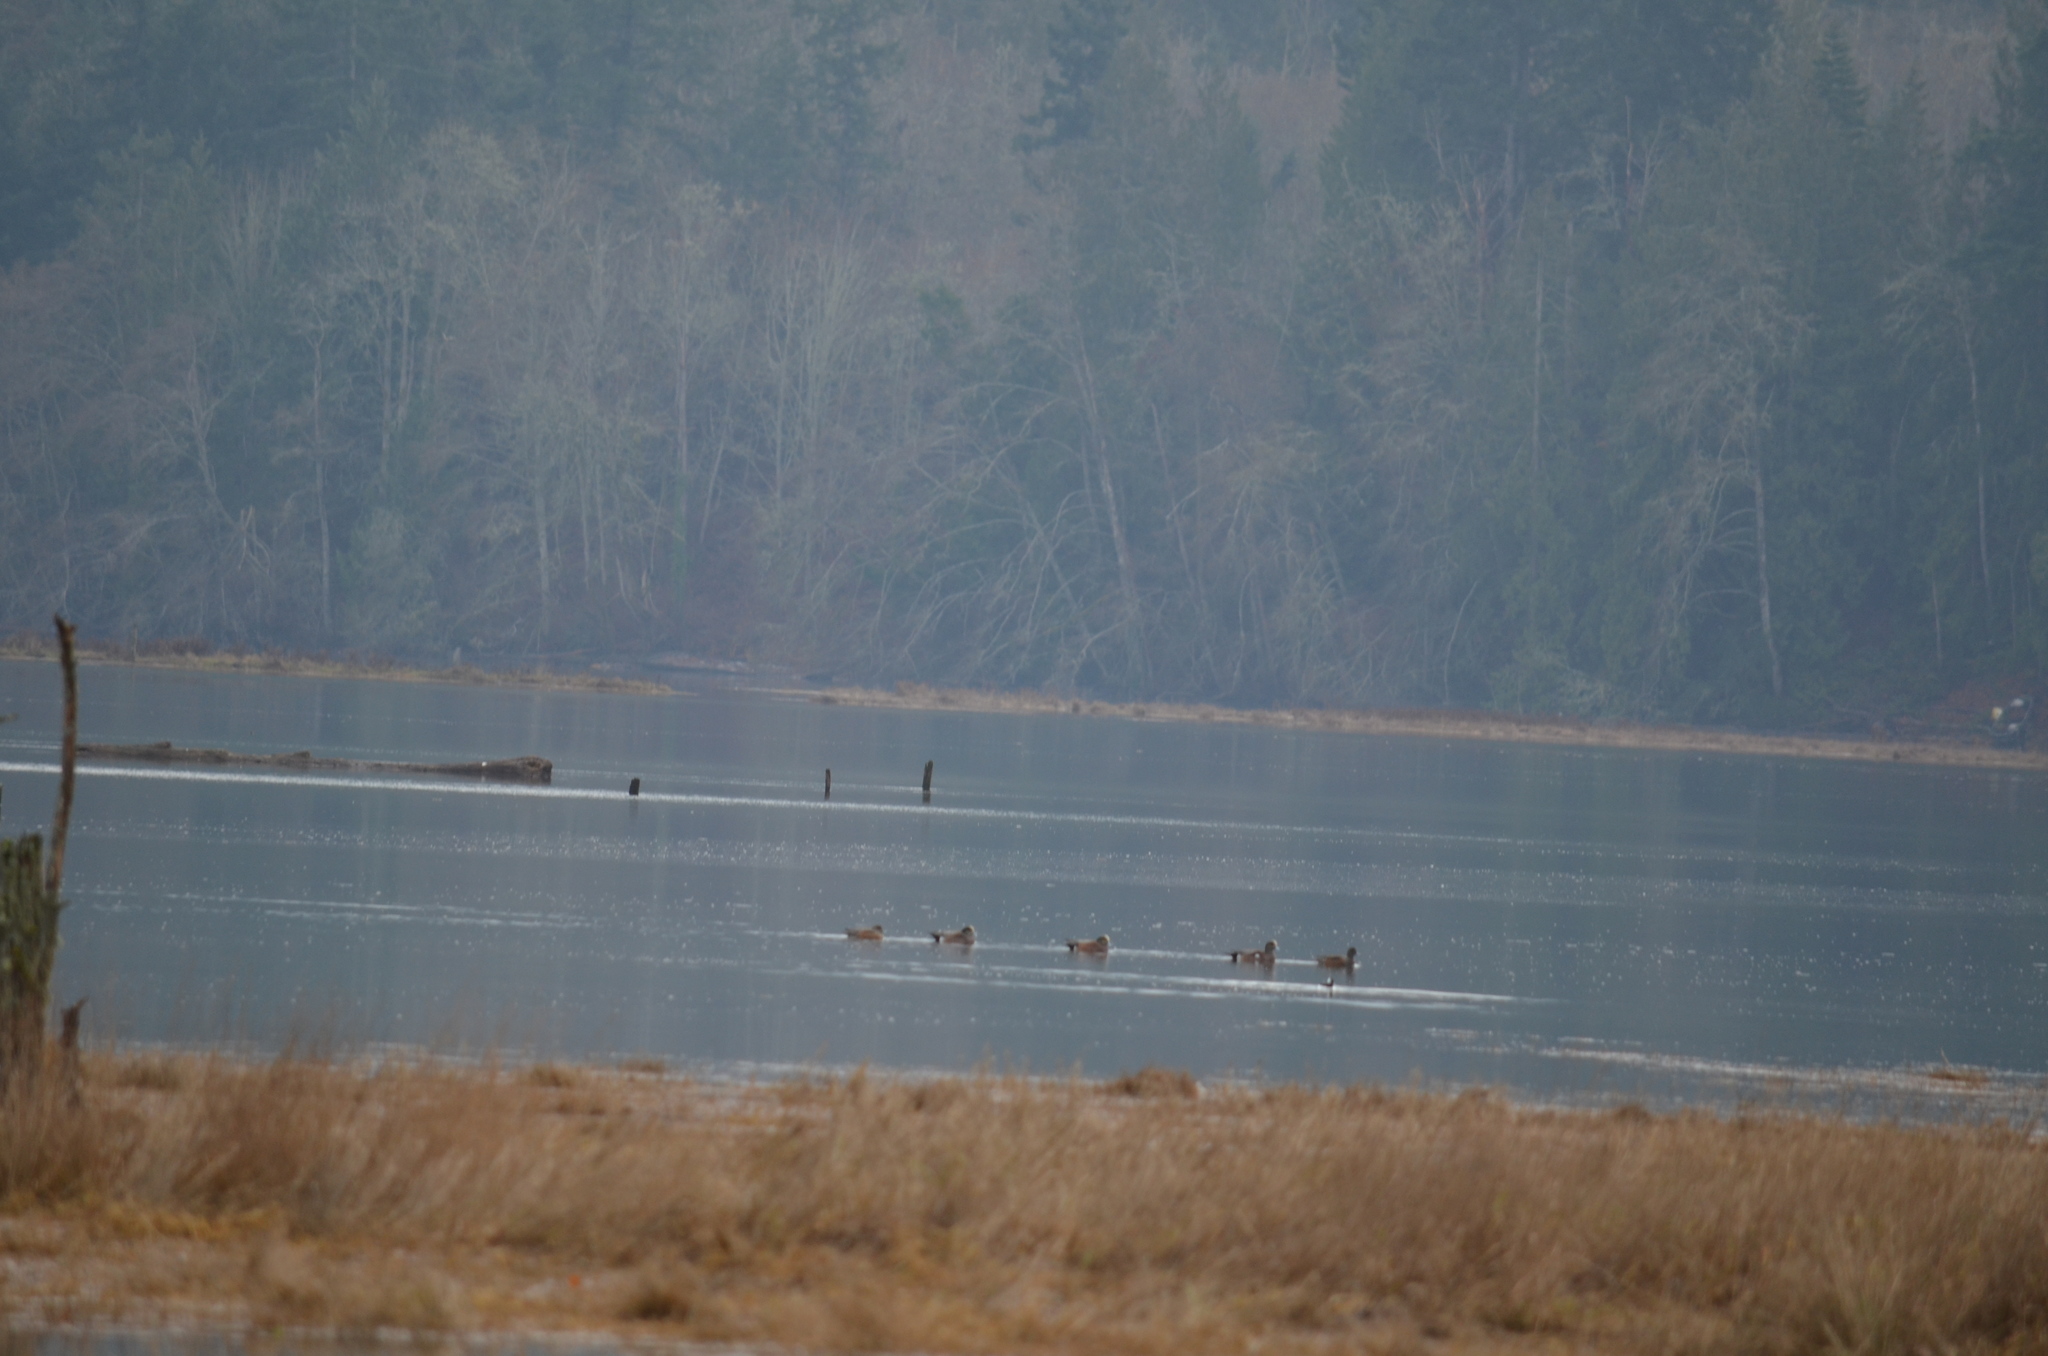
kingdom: Animalia
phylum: Chordata
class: Aves
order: Anseriformes
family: Anatidae
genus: Mareca
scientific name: Mareca americana
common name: American wigeon
